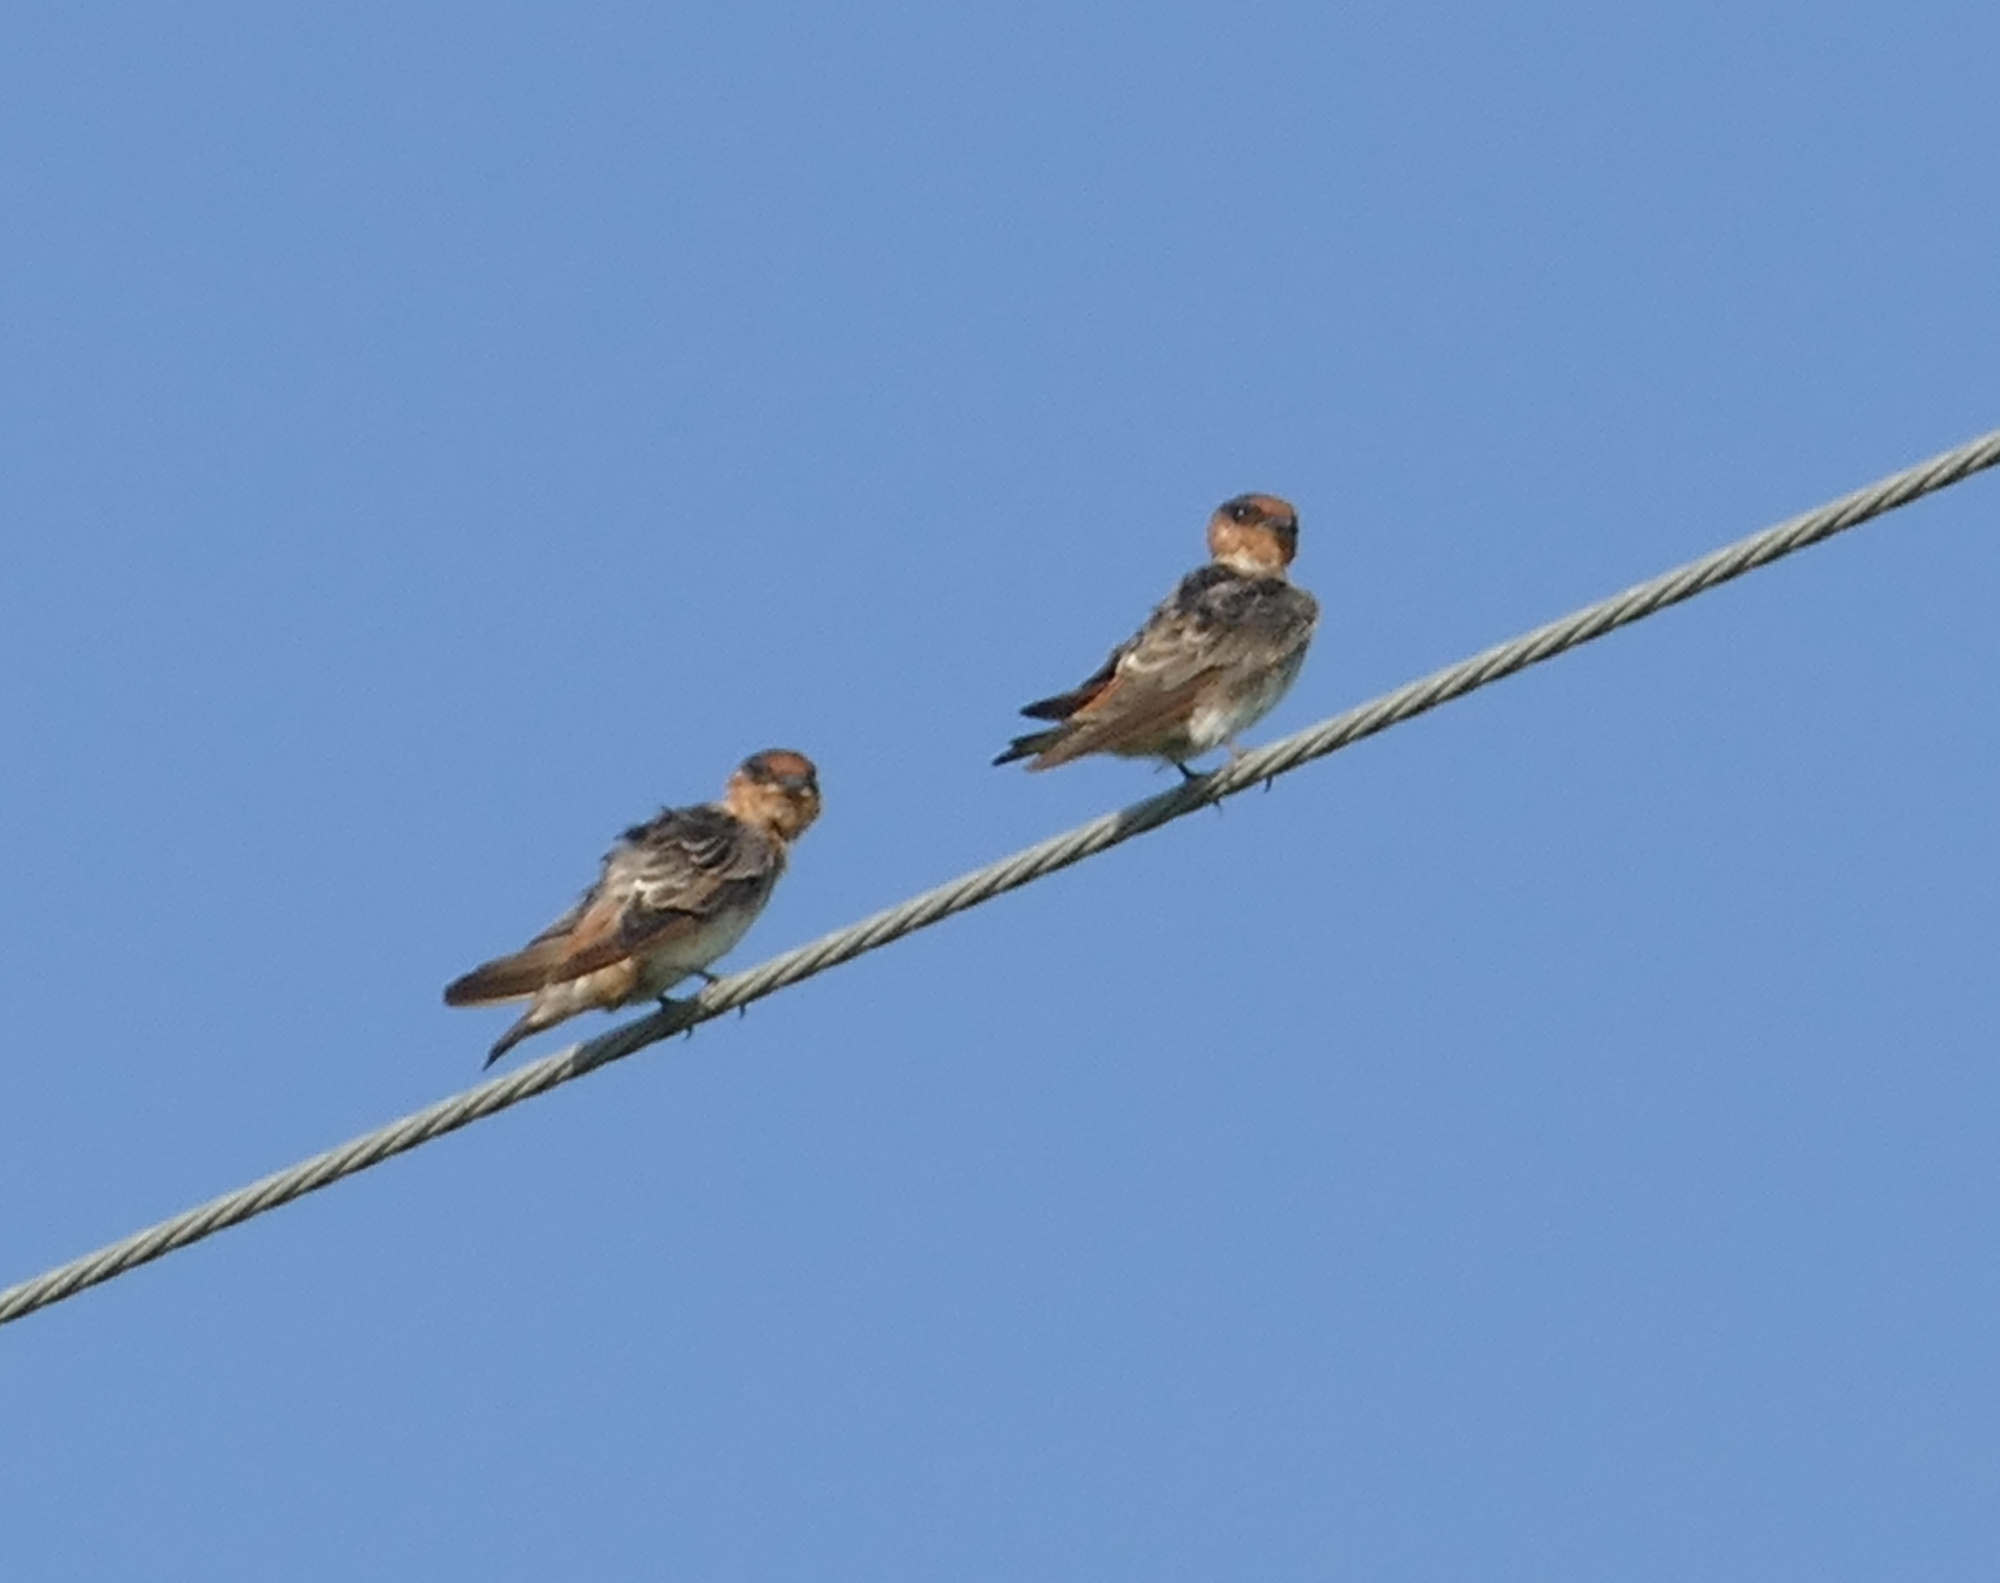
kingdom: Animalia
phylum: Chordata
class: Aves
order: Passeriformes
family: Hirundinidae
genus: Petrochelidon
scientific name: Petrochelidon fulva
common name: Cave swallow
